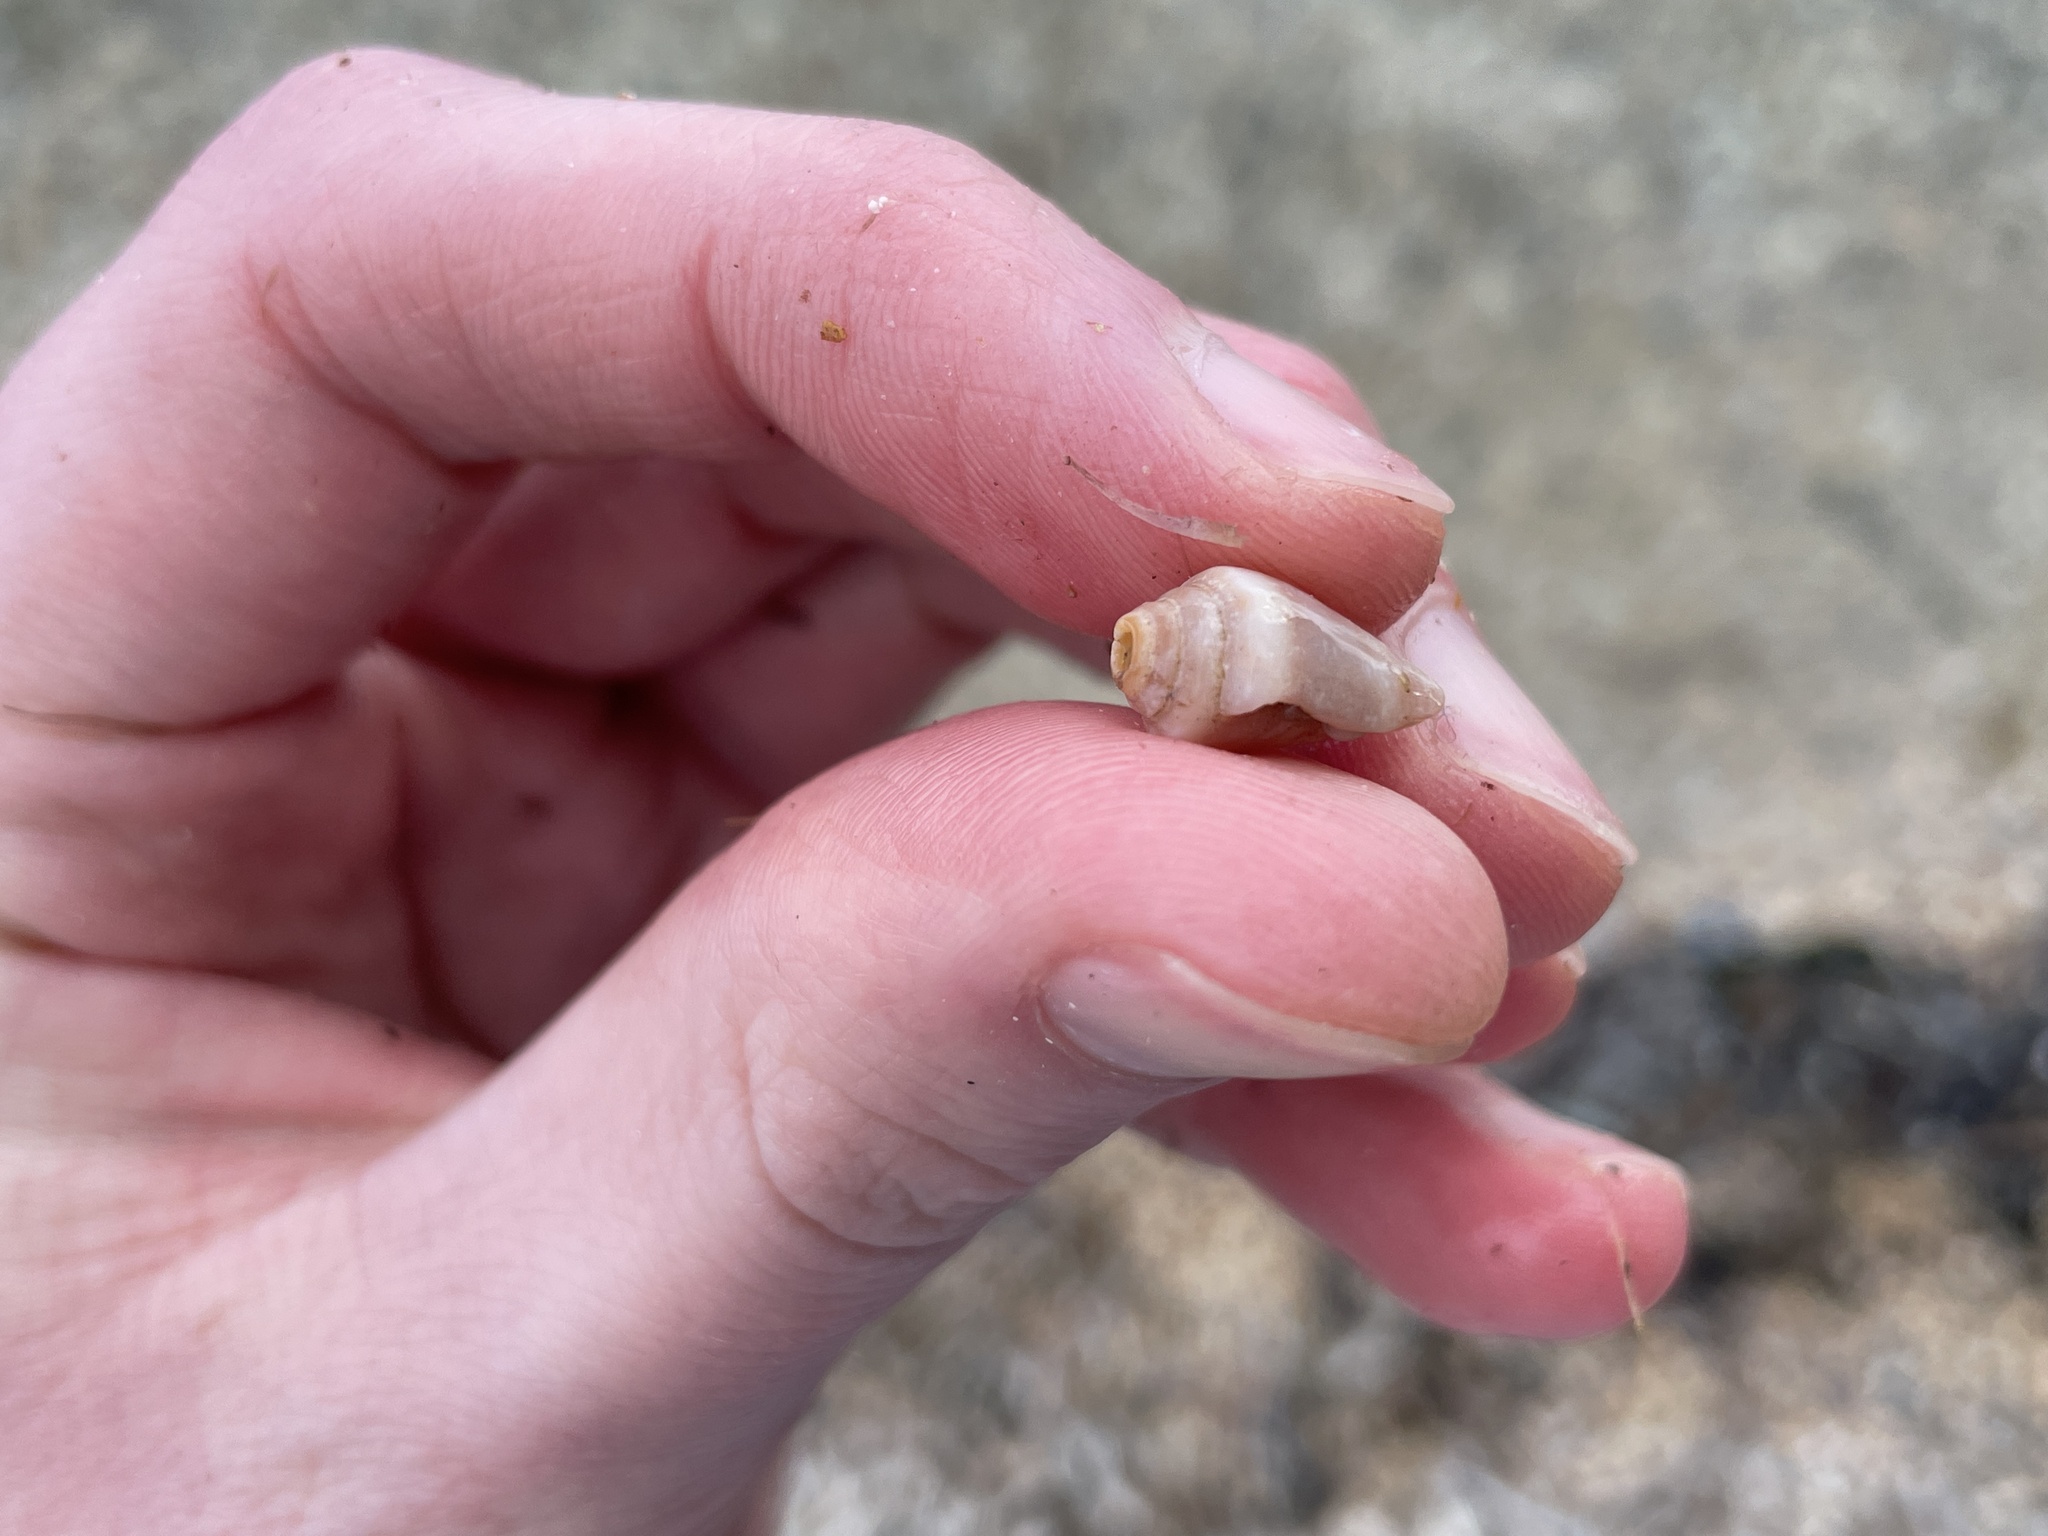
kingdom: Animalia
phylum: Mollusca
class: Gastropoda
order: Neogastropoda
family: Conidae
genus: Conus
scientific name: Conus ventricosus
